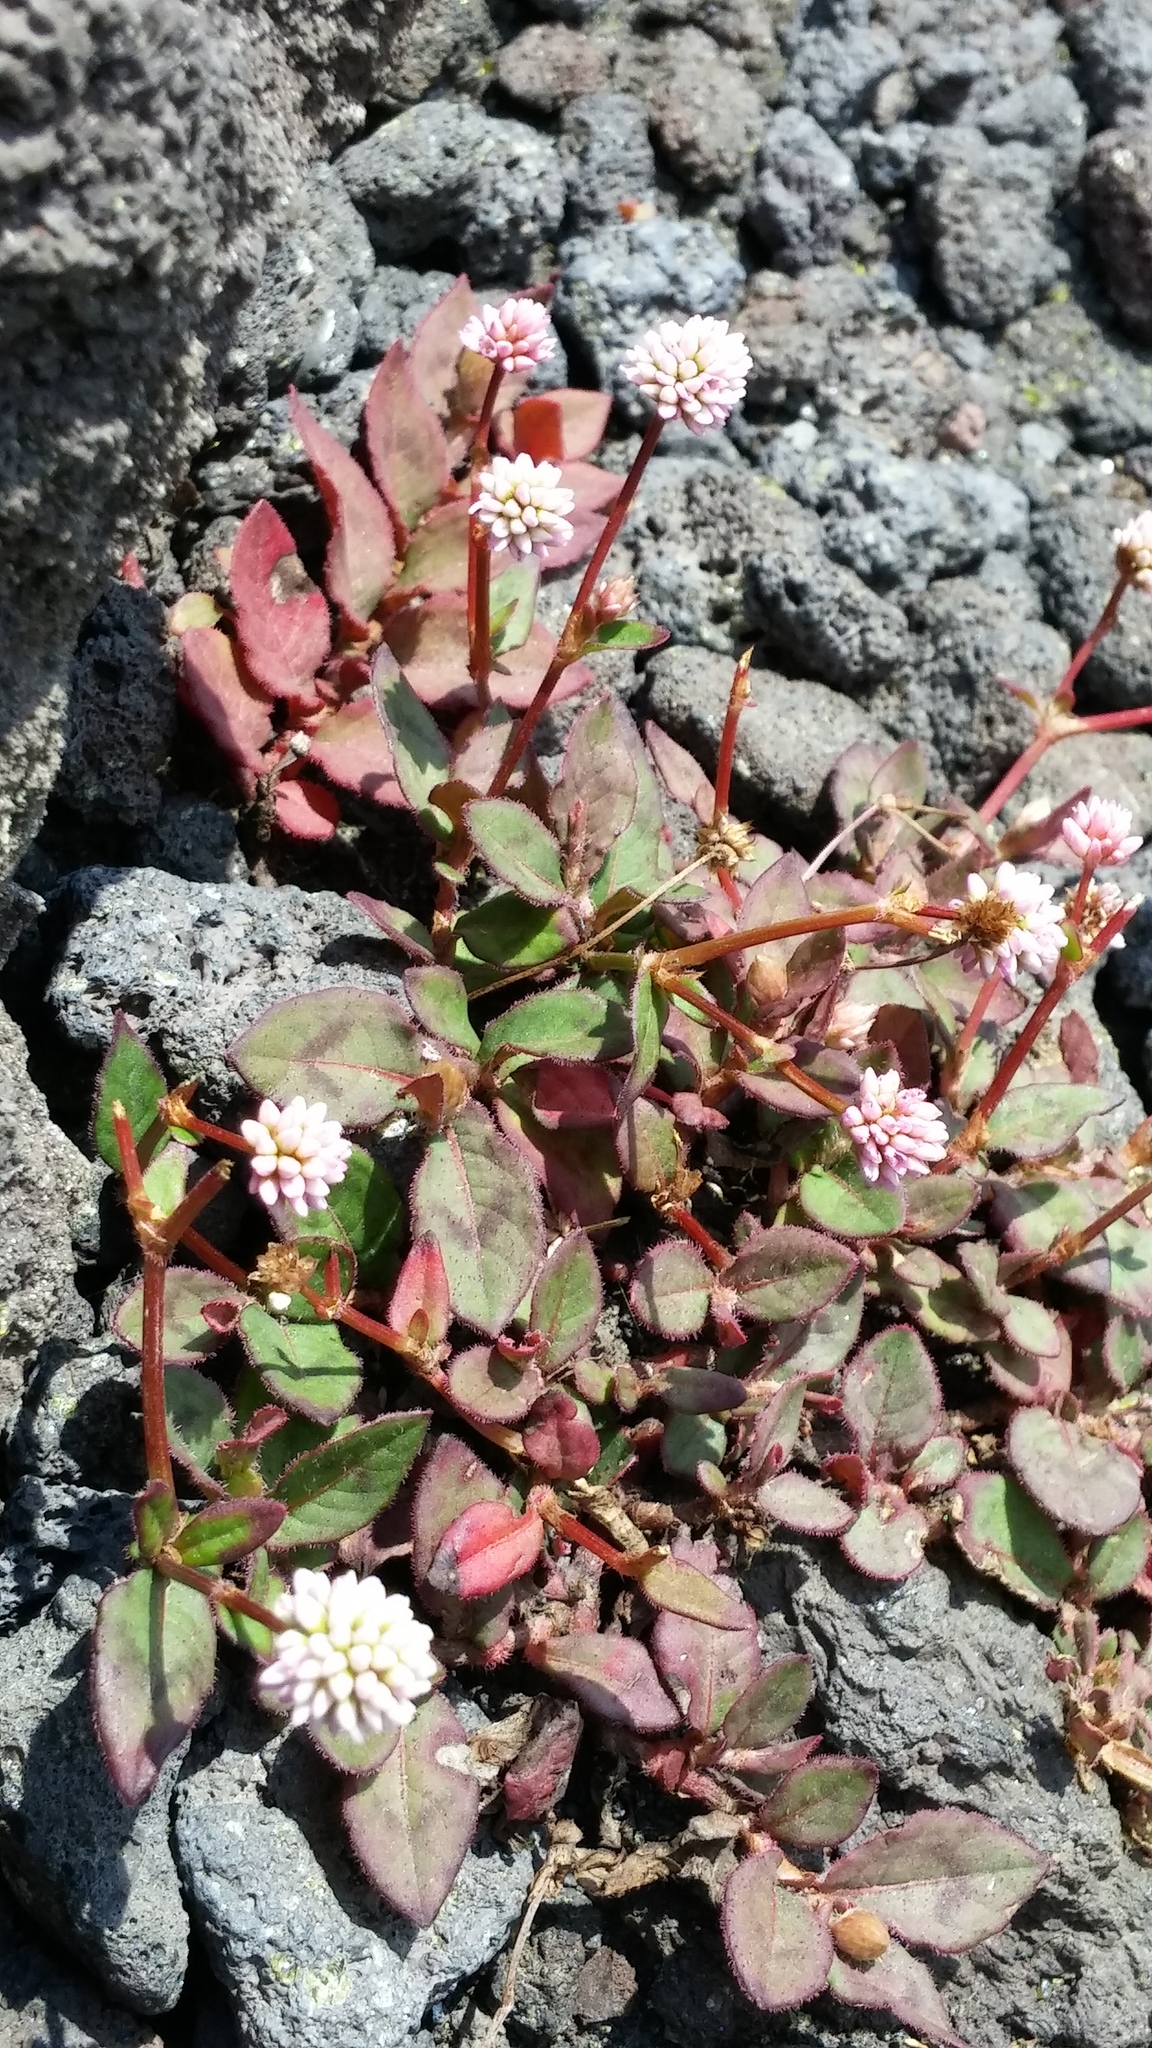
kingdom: Plantae
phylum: Tracheophyta
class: Magnoliopsida
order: Caryophyllales
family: Polygonaceae
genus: Persicaria
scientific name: Persicaria capitata
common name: Pinkhead smartweed
